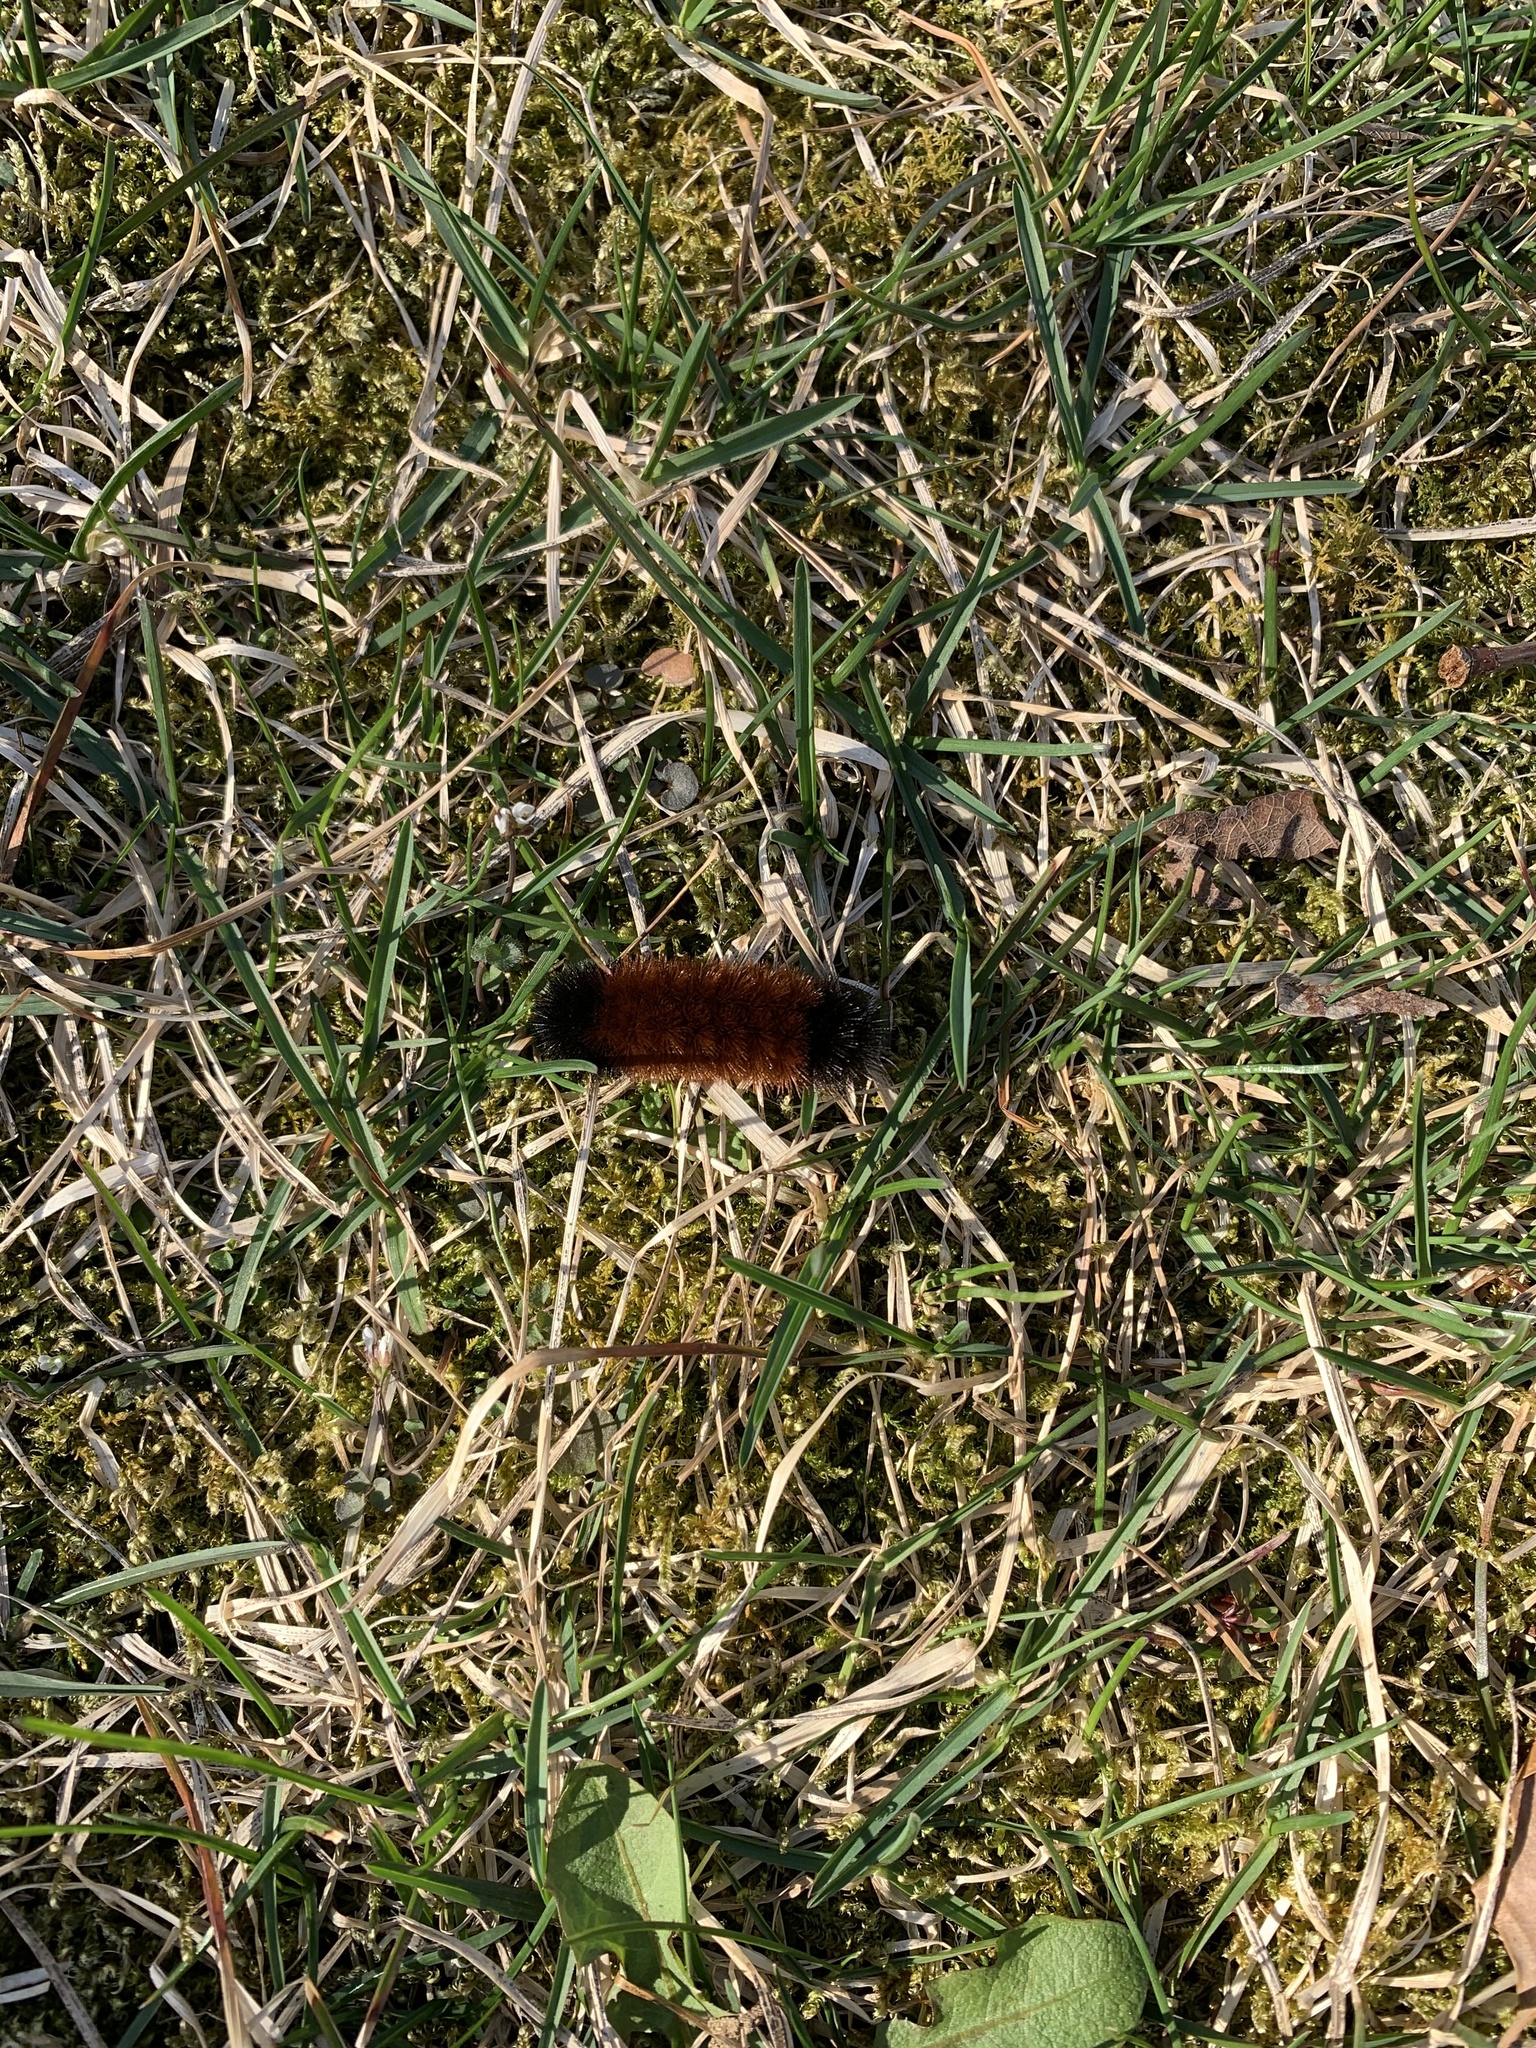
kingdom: Animalia
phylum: Arthropoda
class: Insecta
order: Lepidoptera
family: Erebidae
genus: Pyrrharctia
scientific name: Pyrrharctia isabella
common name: Isabella tiger moth
